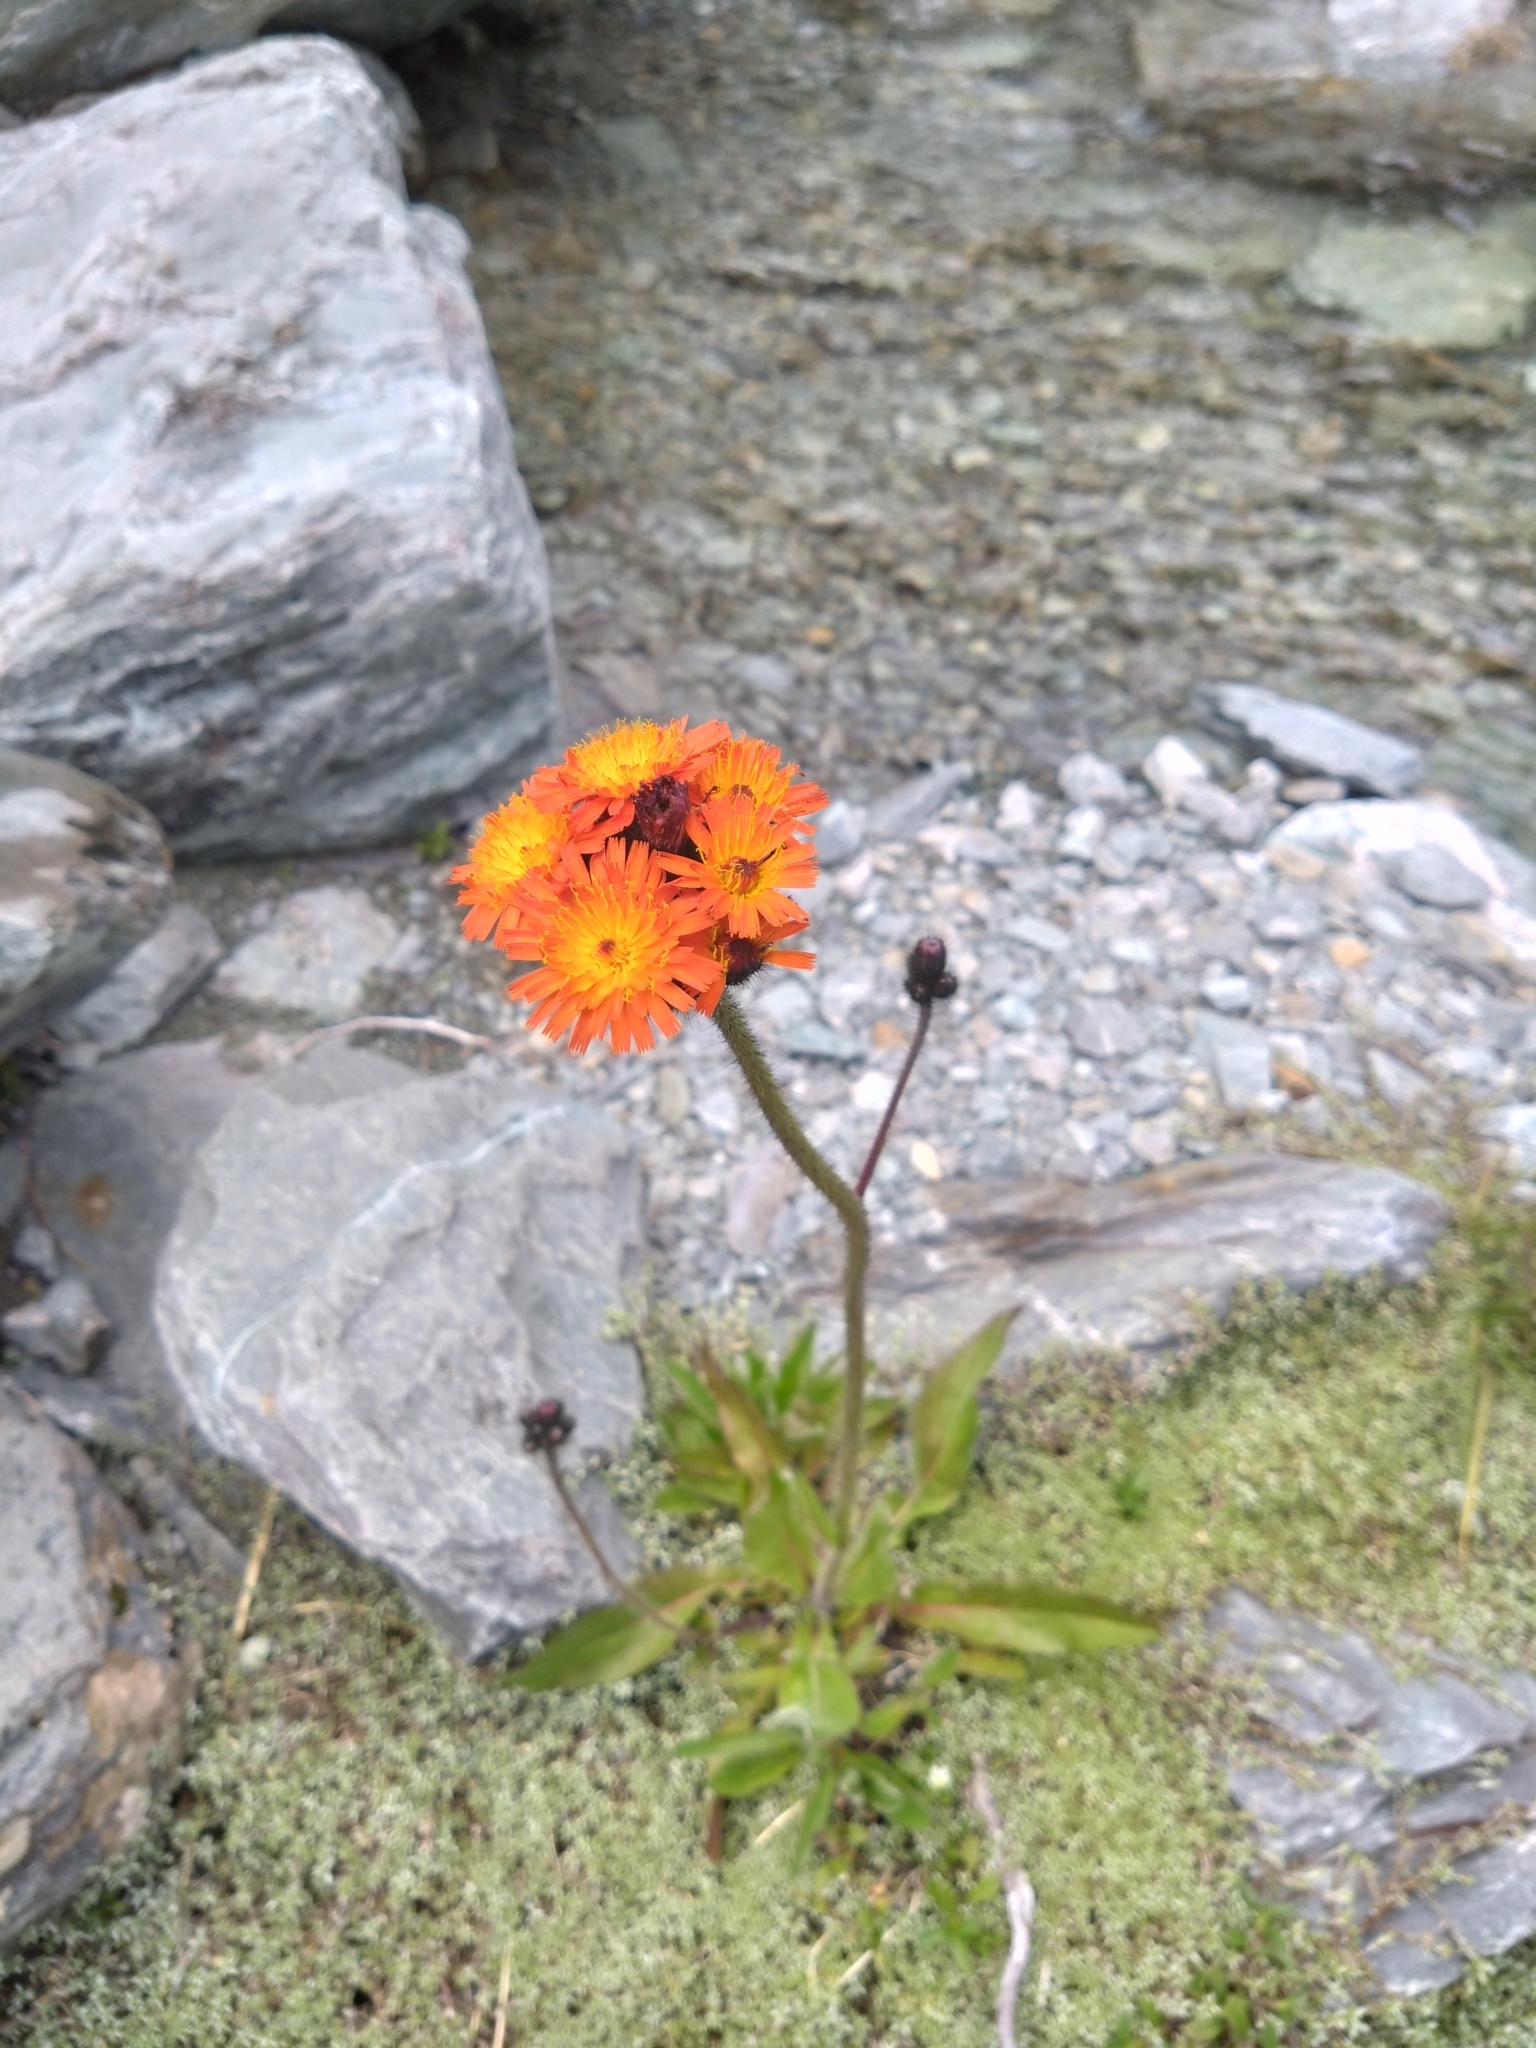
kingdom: Plantae
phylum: Tracheophyta
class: Magnoliopsida
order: Asterales
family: Asteraceae
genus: Pilosella
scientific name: Pilosella aurantiaca
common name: Fox-and-cubs
